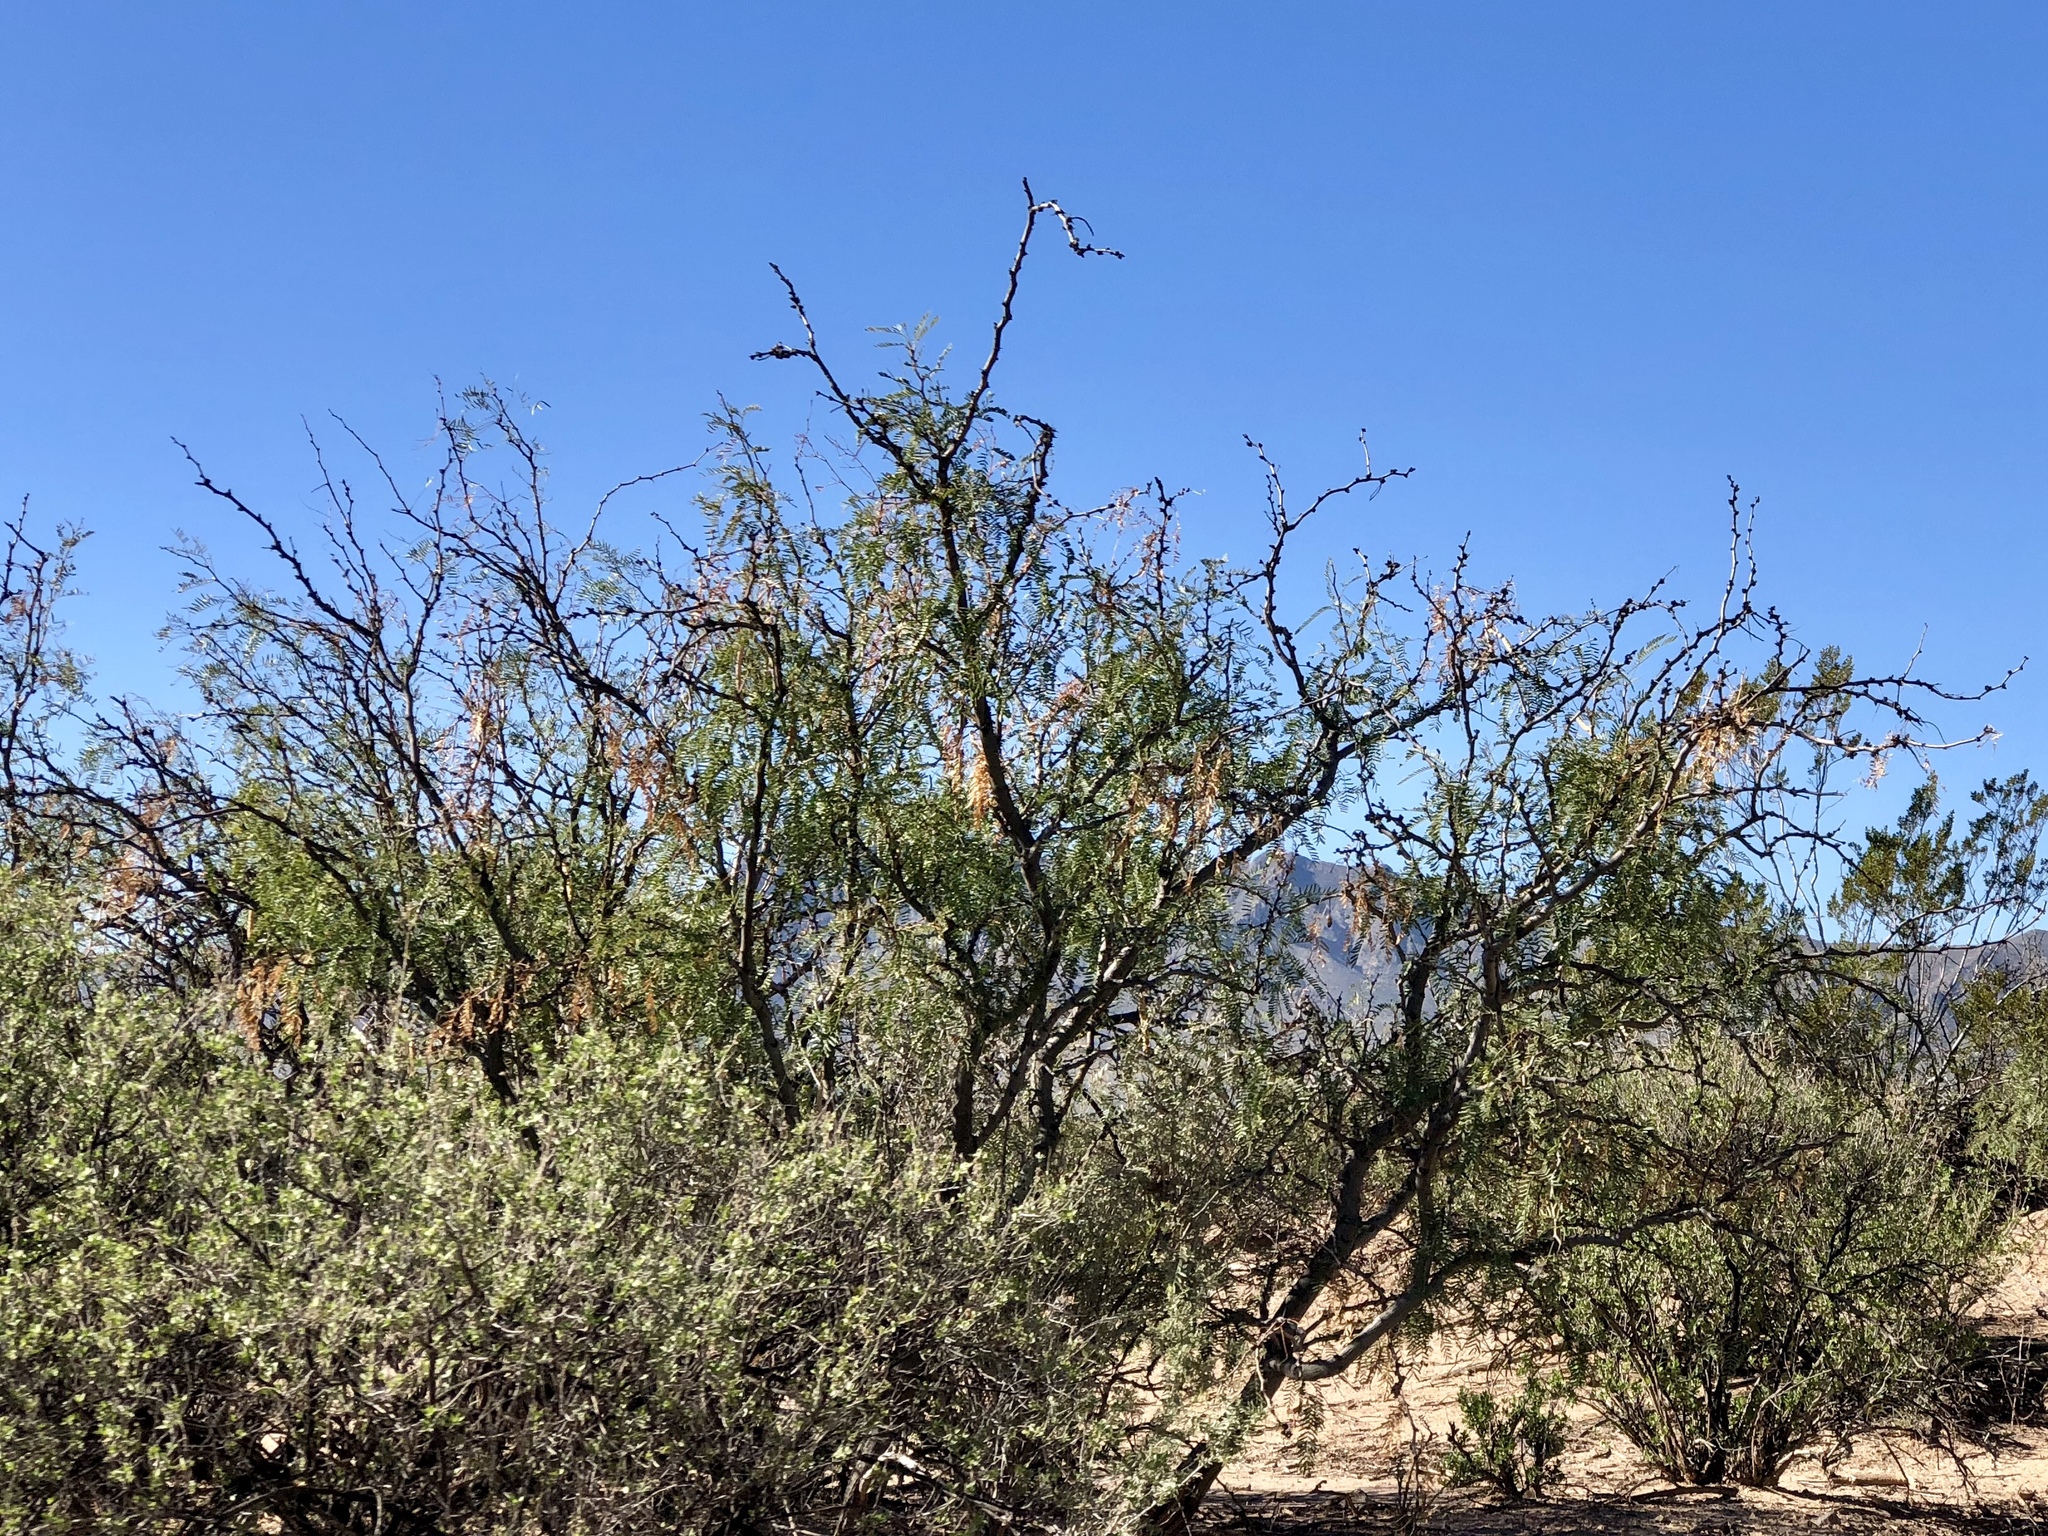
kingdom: Plantae
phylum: Tracheophyta
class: Magnoliopsida
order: Fabales
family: Fabaceae
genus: Prosopis
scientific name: Prosopis glandulosa
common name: Honey mesquite
